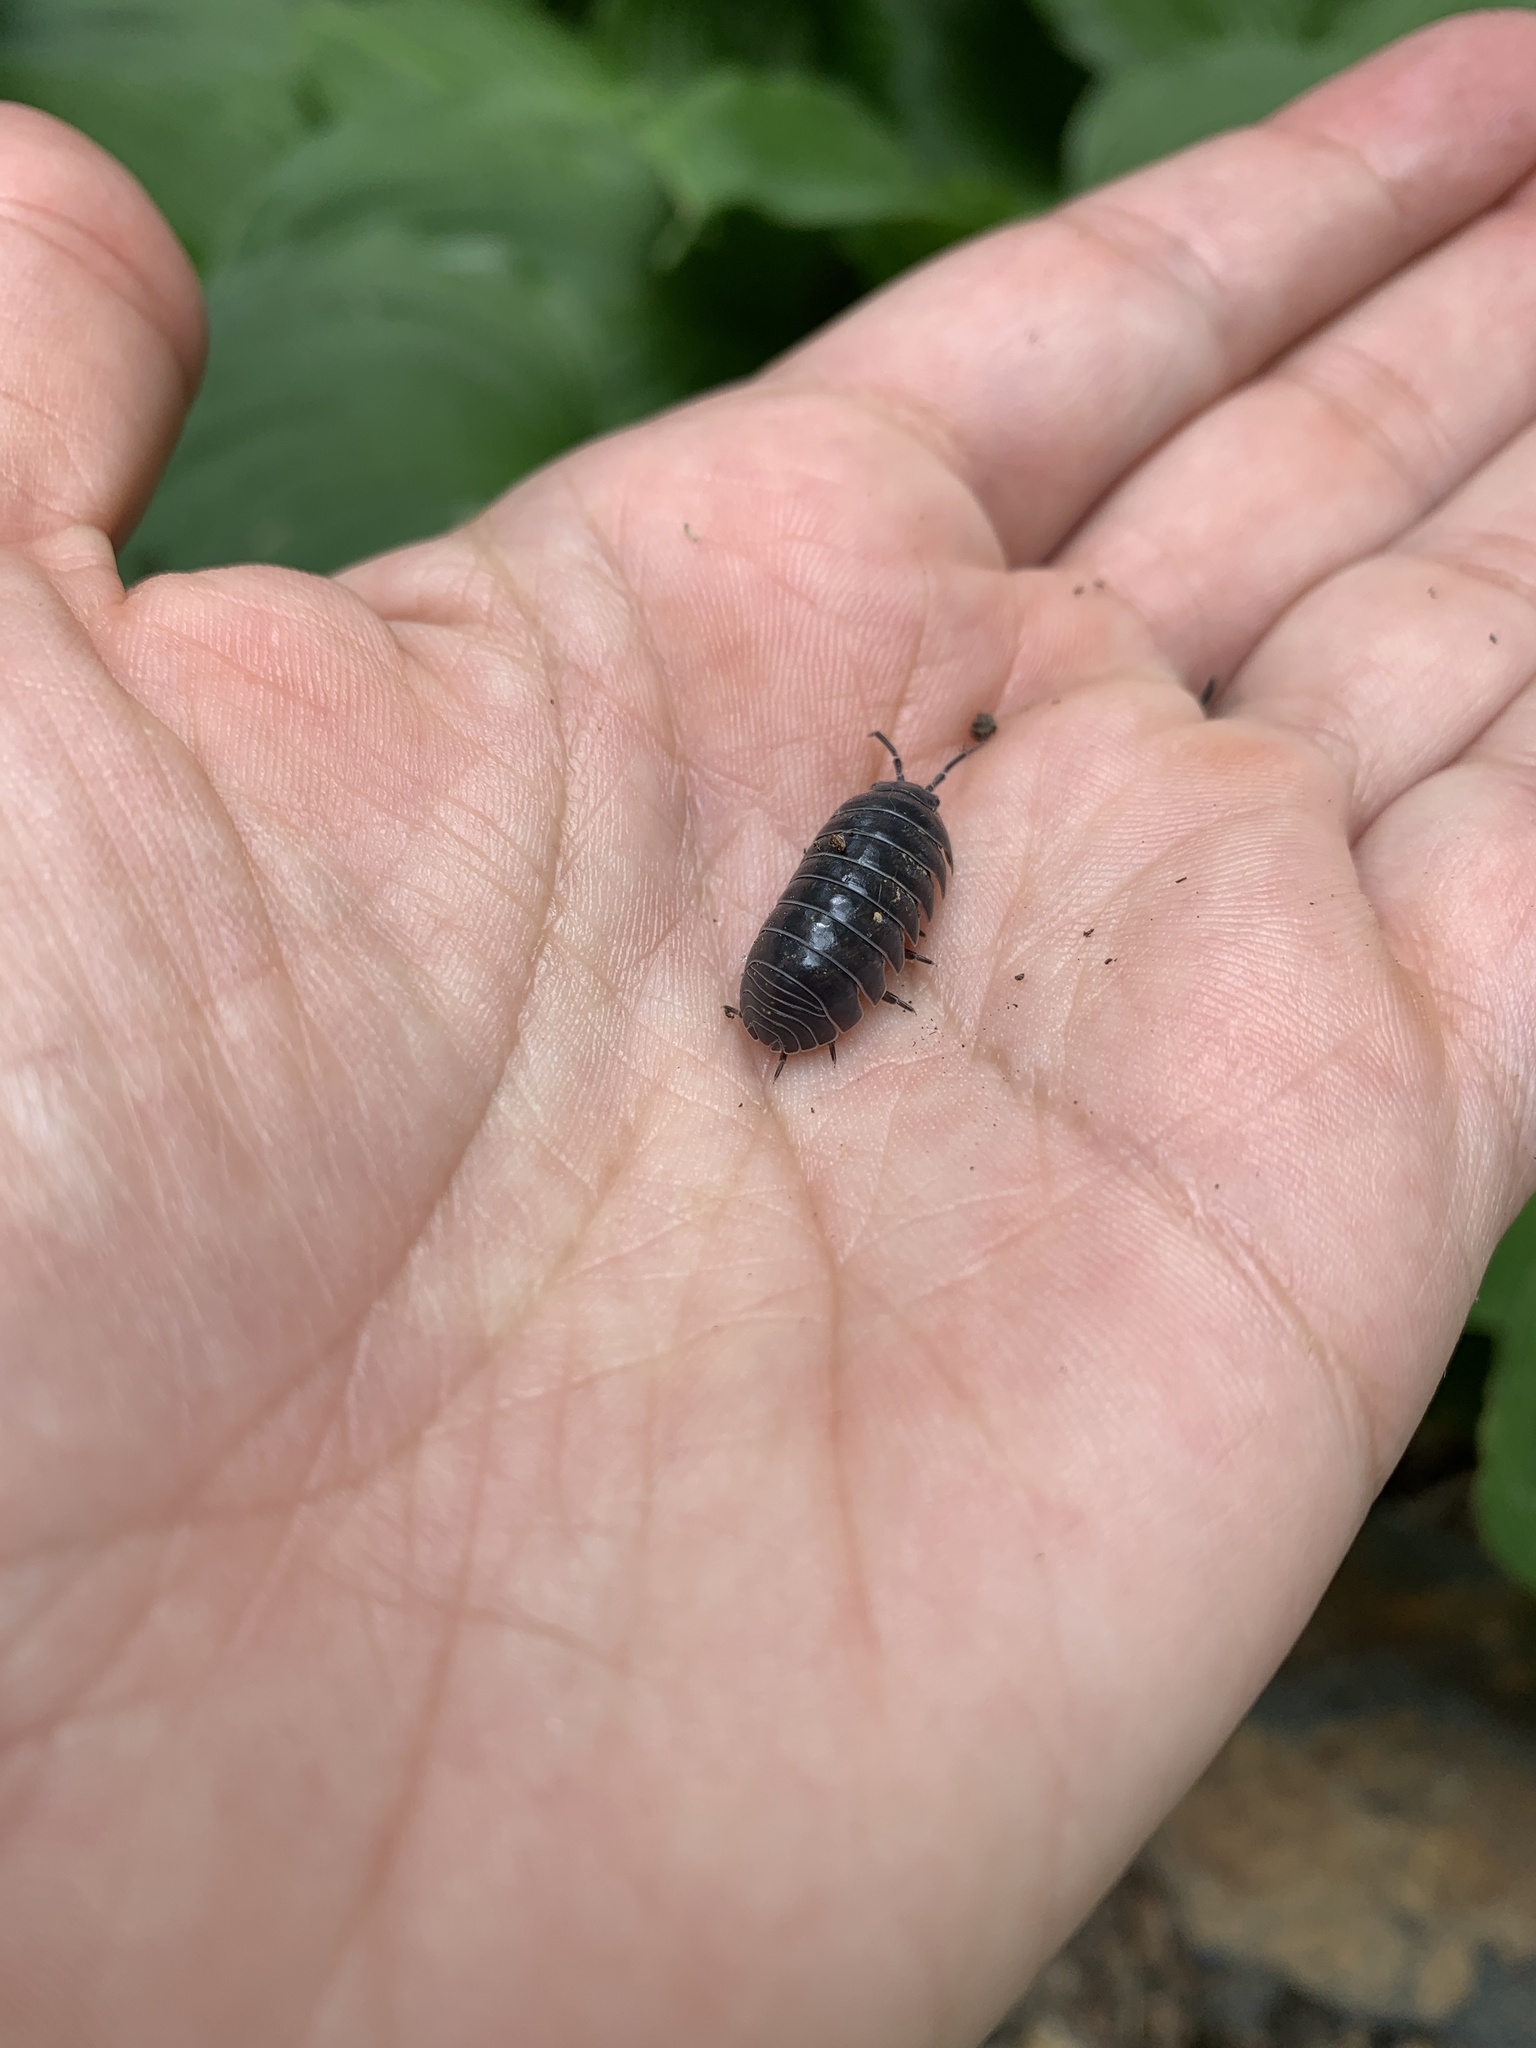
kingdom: Animalia
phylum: Arthropoda
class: Malacostraca
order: Isopoda
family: Armadillidiidae
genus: Armadillidium
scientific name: Armadillidium vulgare
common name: Common pill woodlouse
